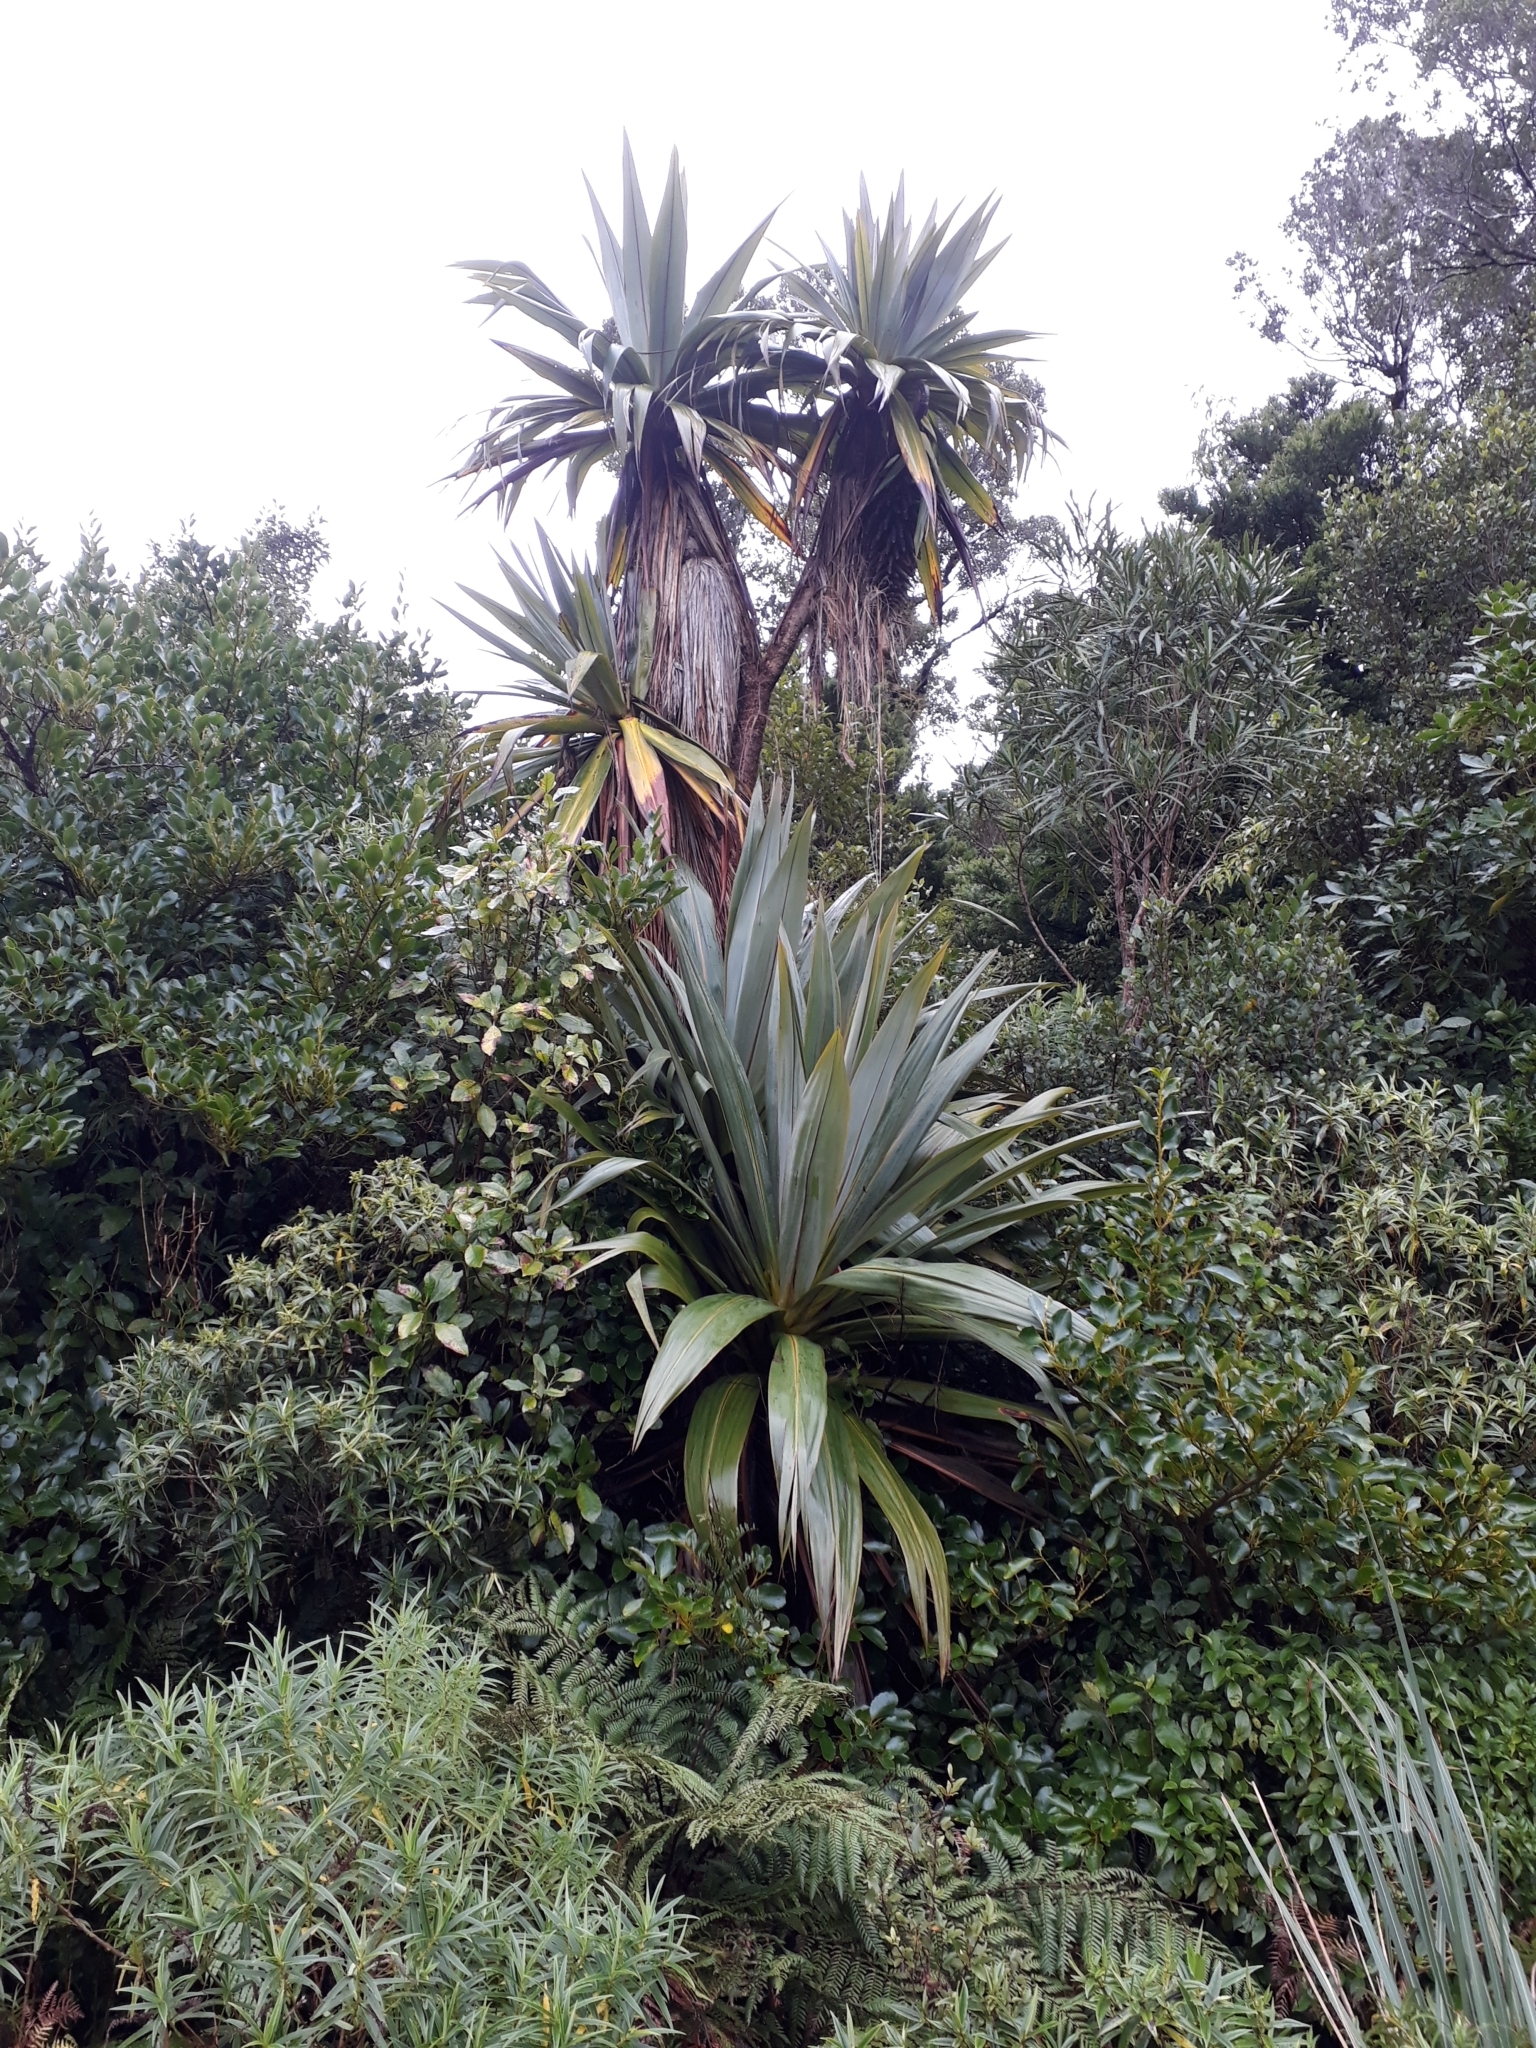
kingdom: Plantae
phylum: Tracheophyta
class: Liliopsida
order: Asparagales
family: Asparagaceae
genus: Cordyline
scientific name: Cordyline indivisa
